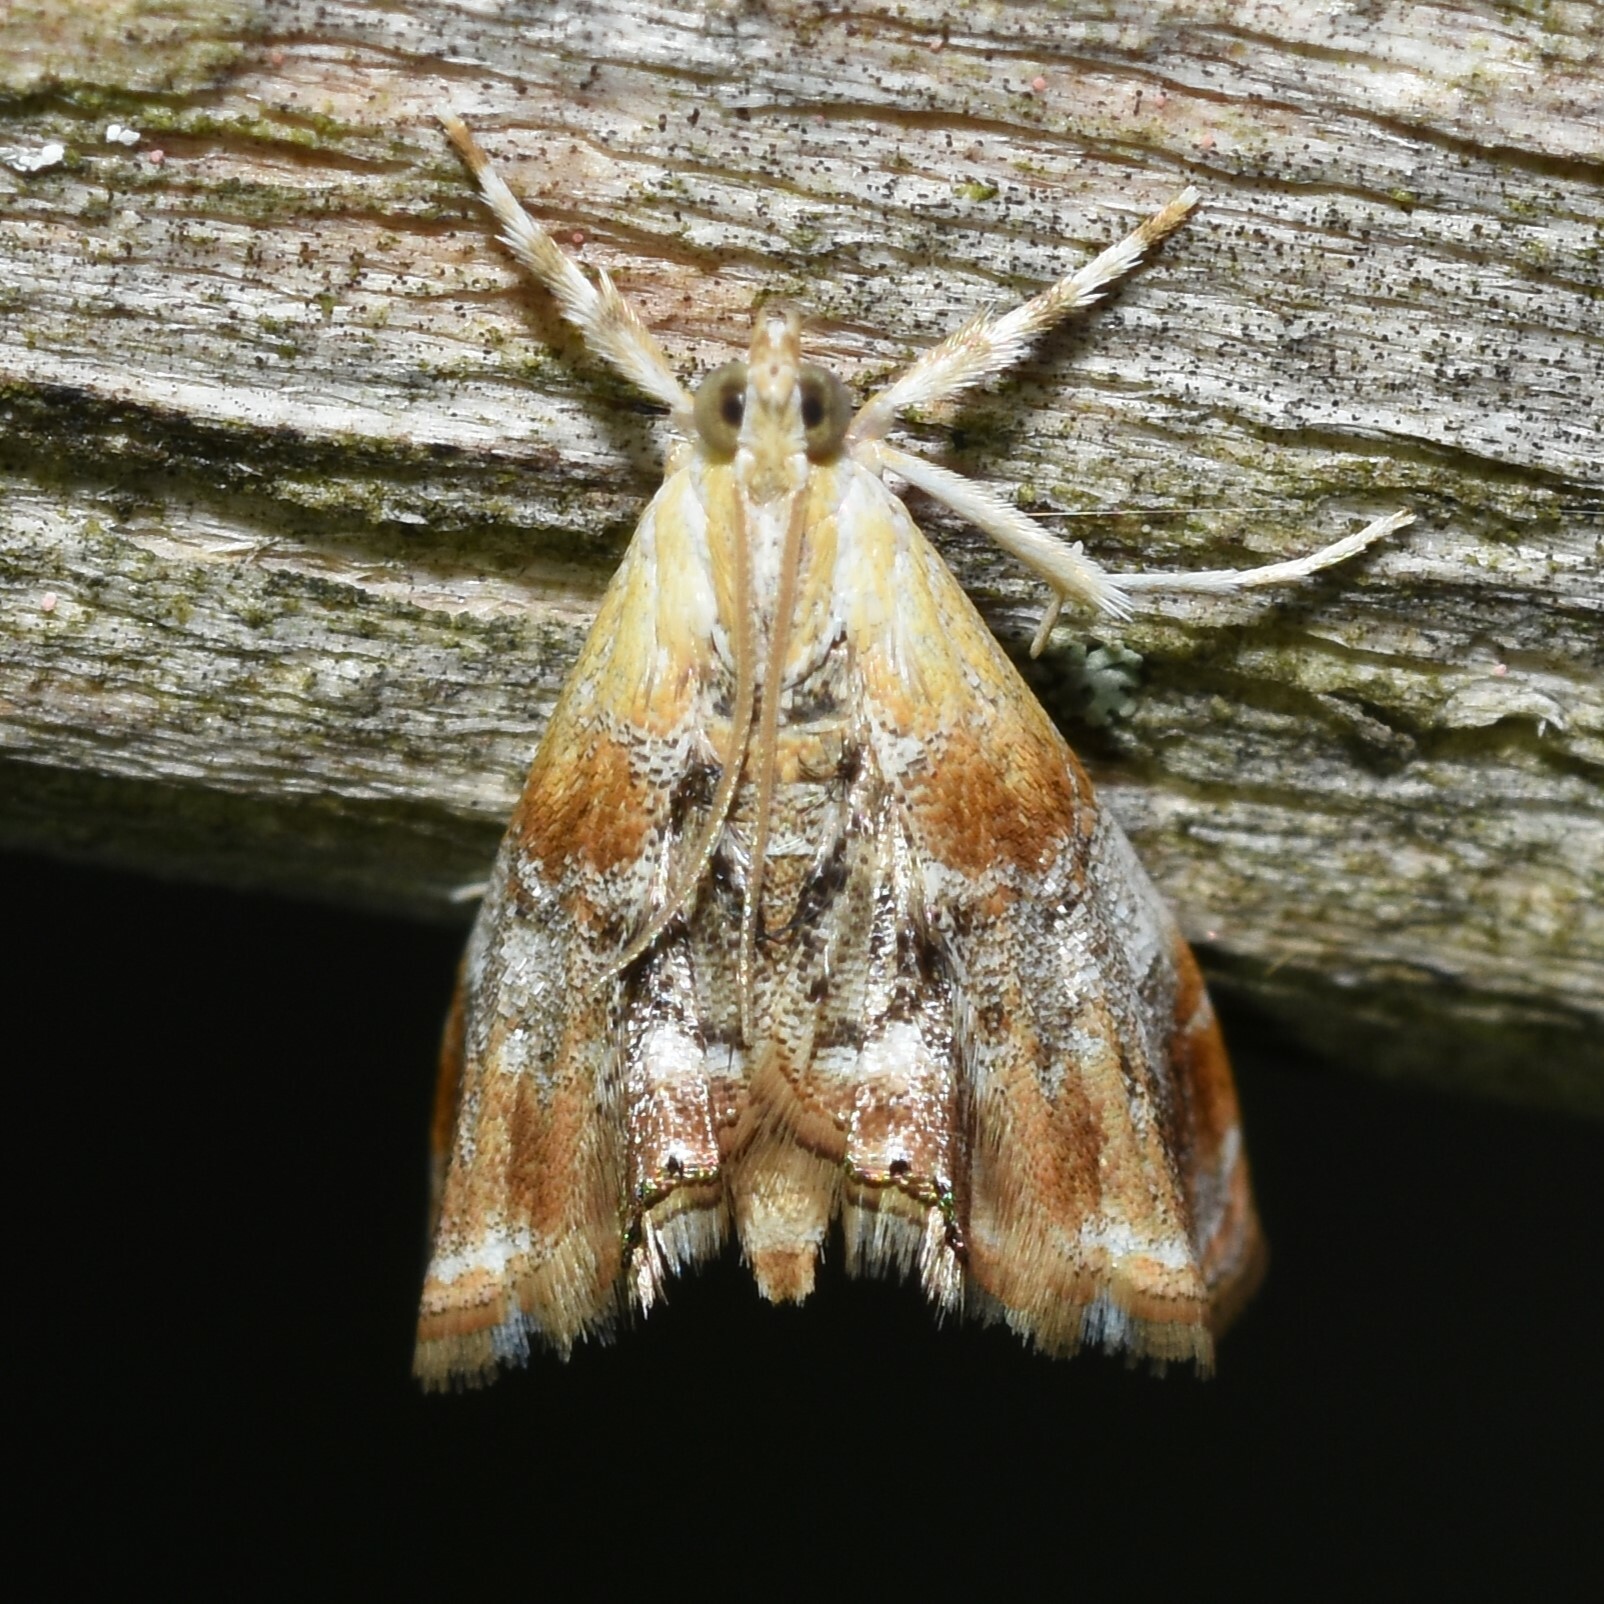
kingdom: Animalia
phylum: Arthropoda
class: Insecta
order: Lepidoptera
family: Crambidae
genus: Dicymolomia
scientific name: Dicymolomia julianalis
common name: Julia's dicymolomia moth
